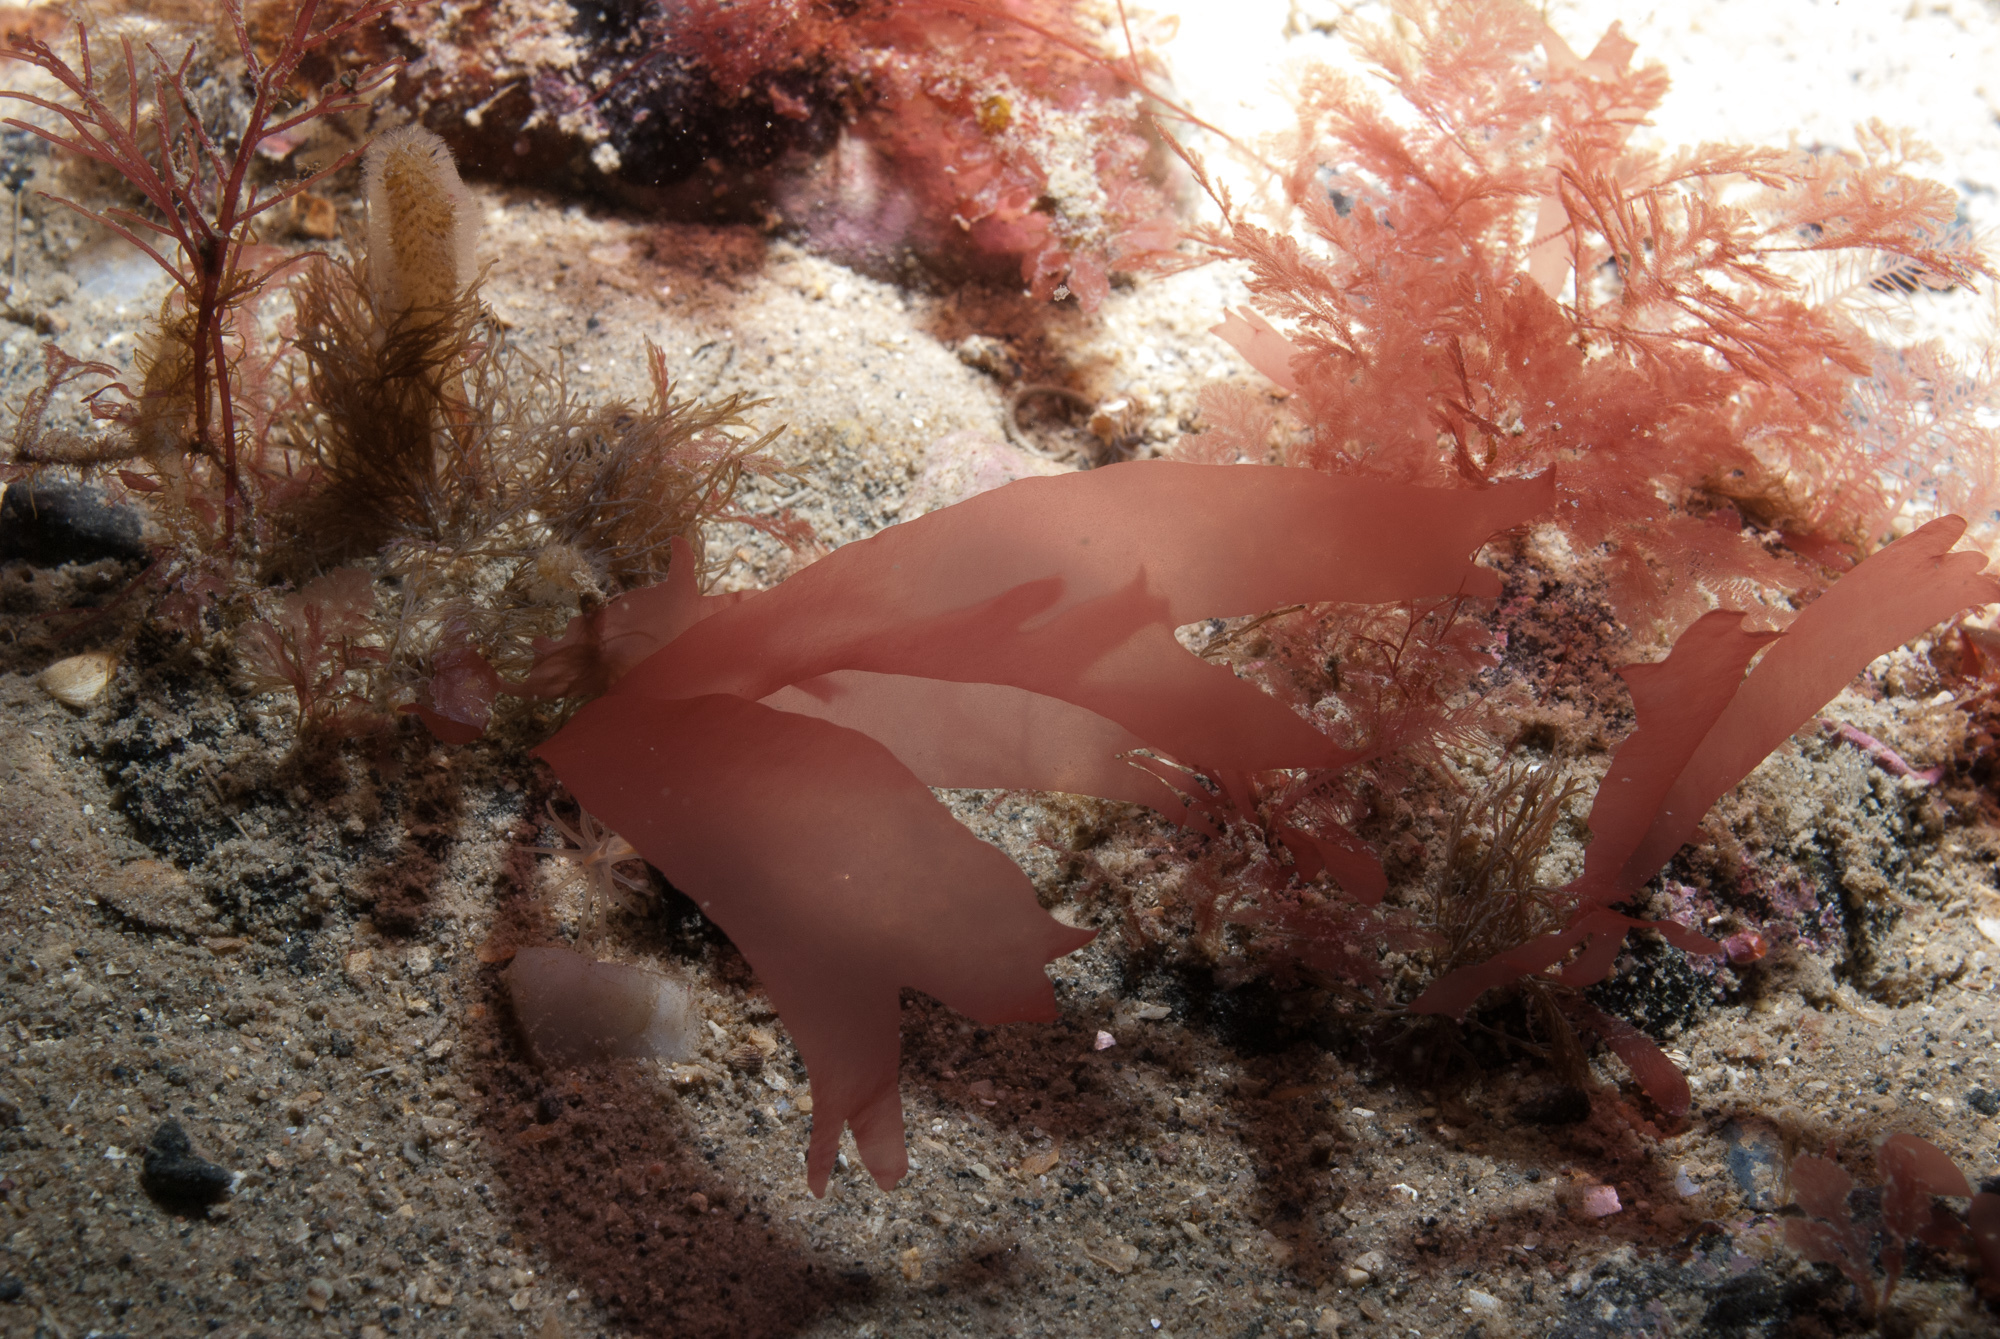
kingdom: Plantae
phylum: Rhodophyta
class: Florideophyceae
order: Gigartinales
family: Furcellariaceae
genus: Halarachnion
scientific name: Halarachnion ligulatum
